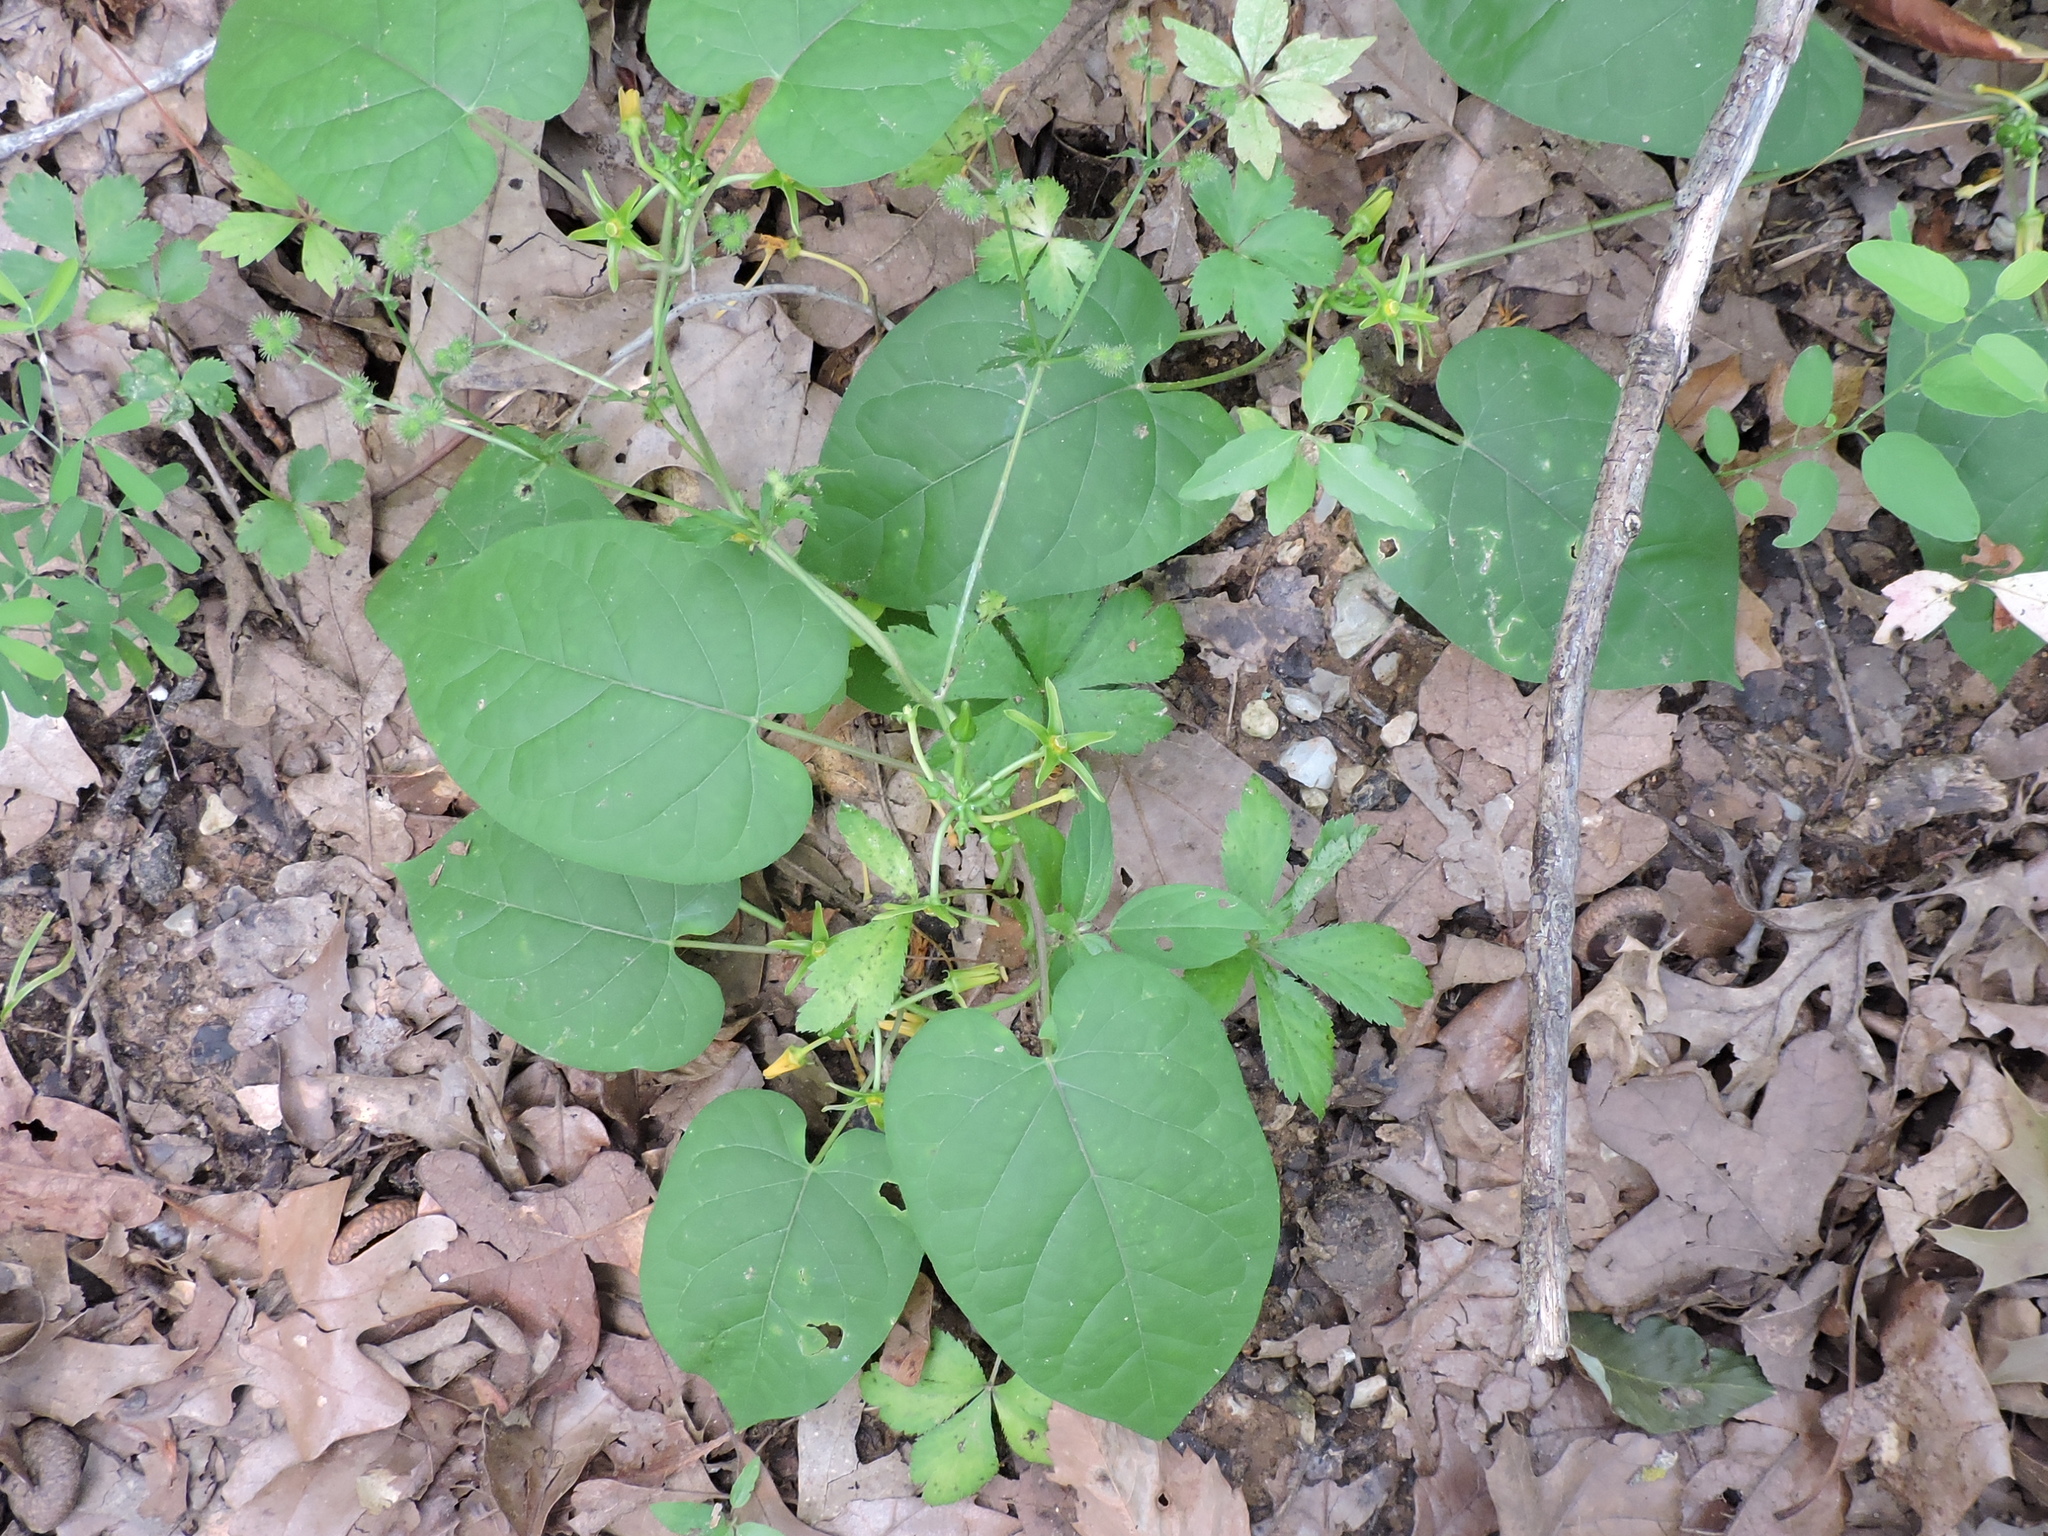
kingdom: Plantae
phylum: Tracheophyta
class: Magnoliopsida
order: Gentianales
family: Apocynaceae
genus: Gonolobus
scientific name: Gonolobus suberosus
